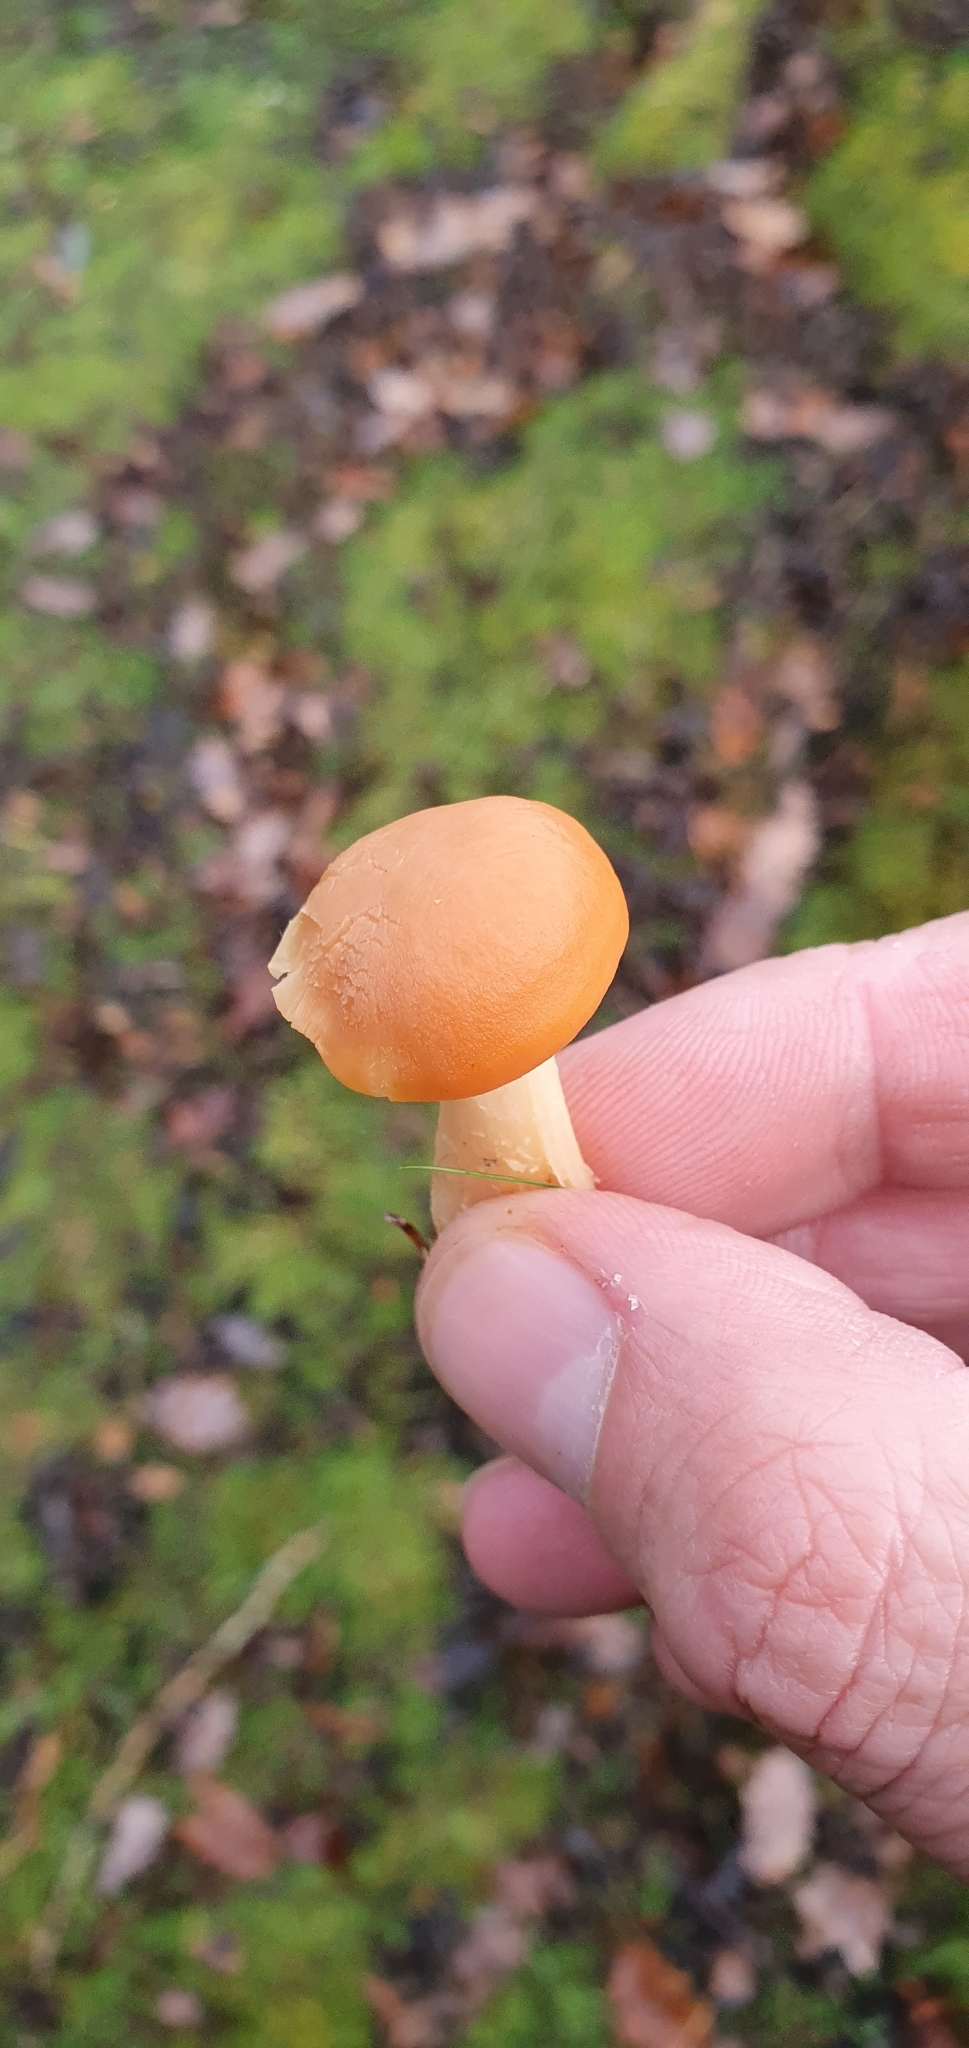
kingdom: Fungi
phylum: Basidiomycota
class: Agaricomycetes
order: Agaricales
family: Hygrophoraceae
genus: Cuphophyllus
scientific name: Cuphophyllus pratensis
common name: Meadow waxcap
